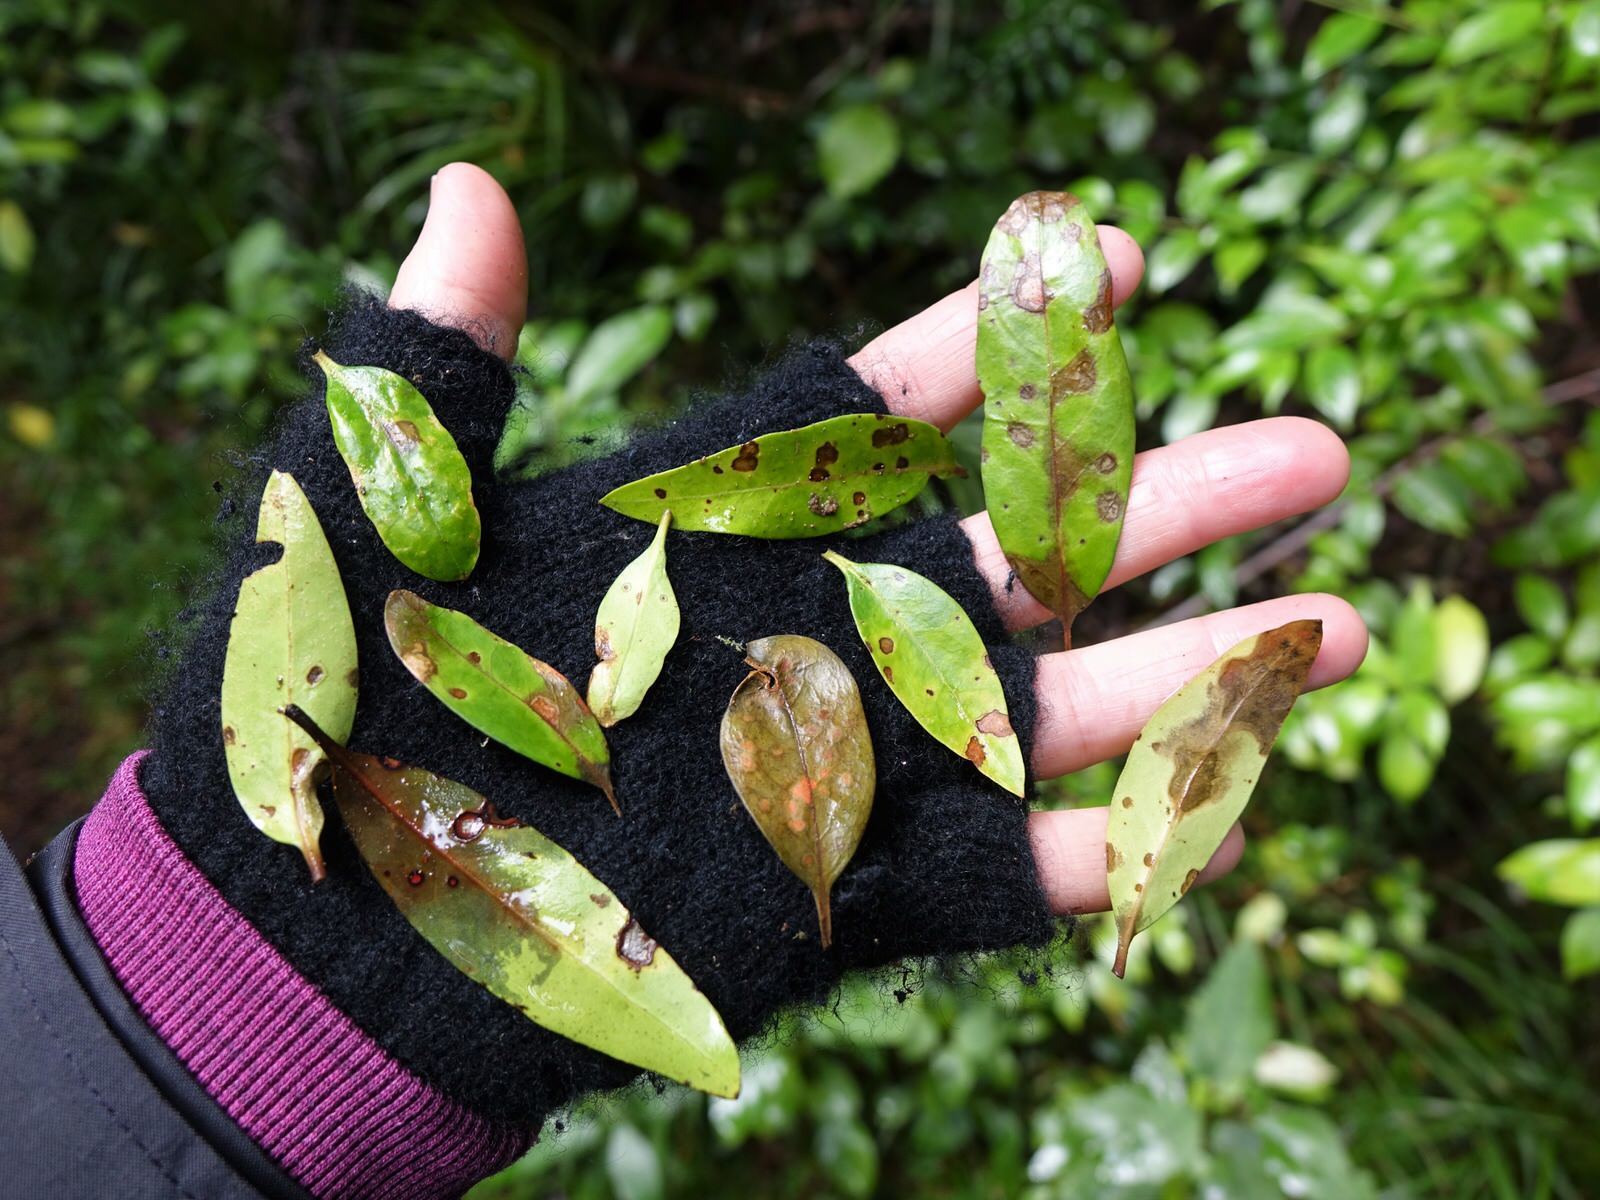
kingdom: Plantae
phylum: Tracheophyta
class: Magnoliopsida
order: Myrtales
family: Myrtaceae
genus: Syzygium
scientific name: Syzygium maire
